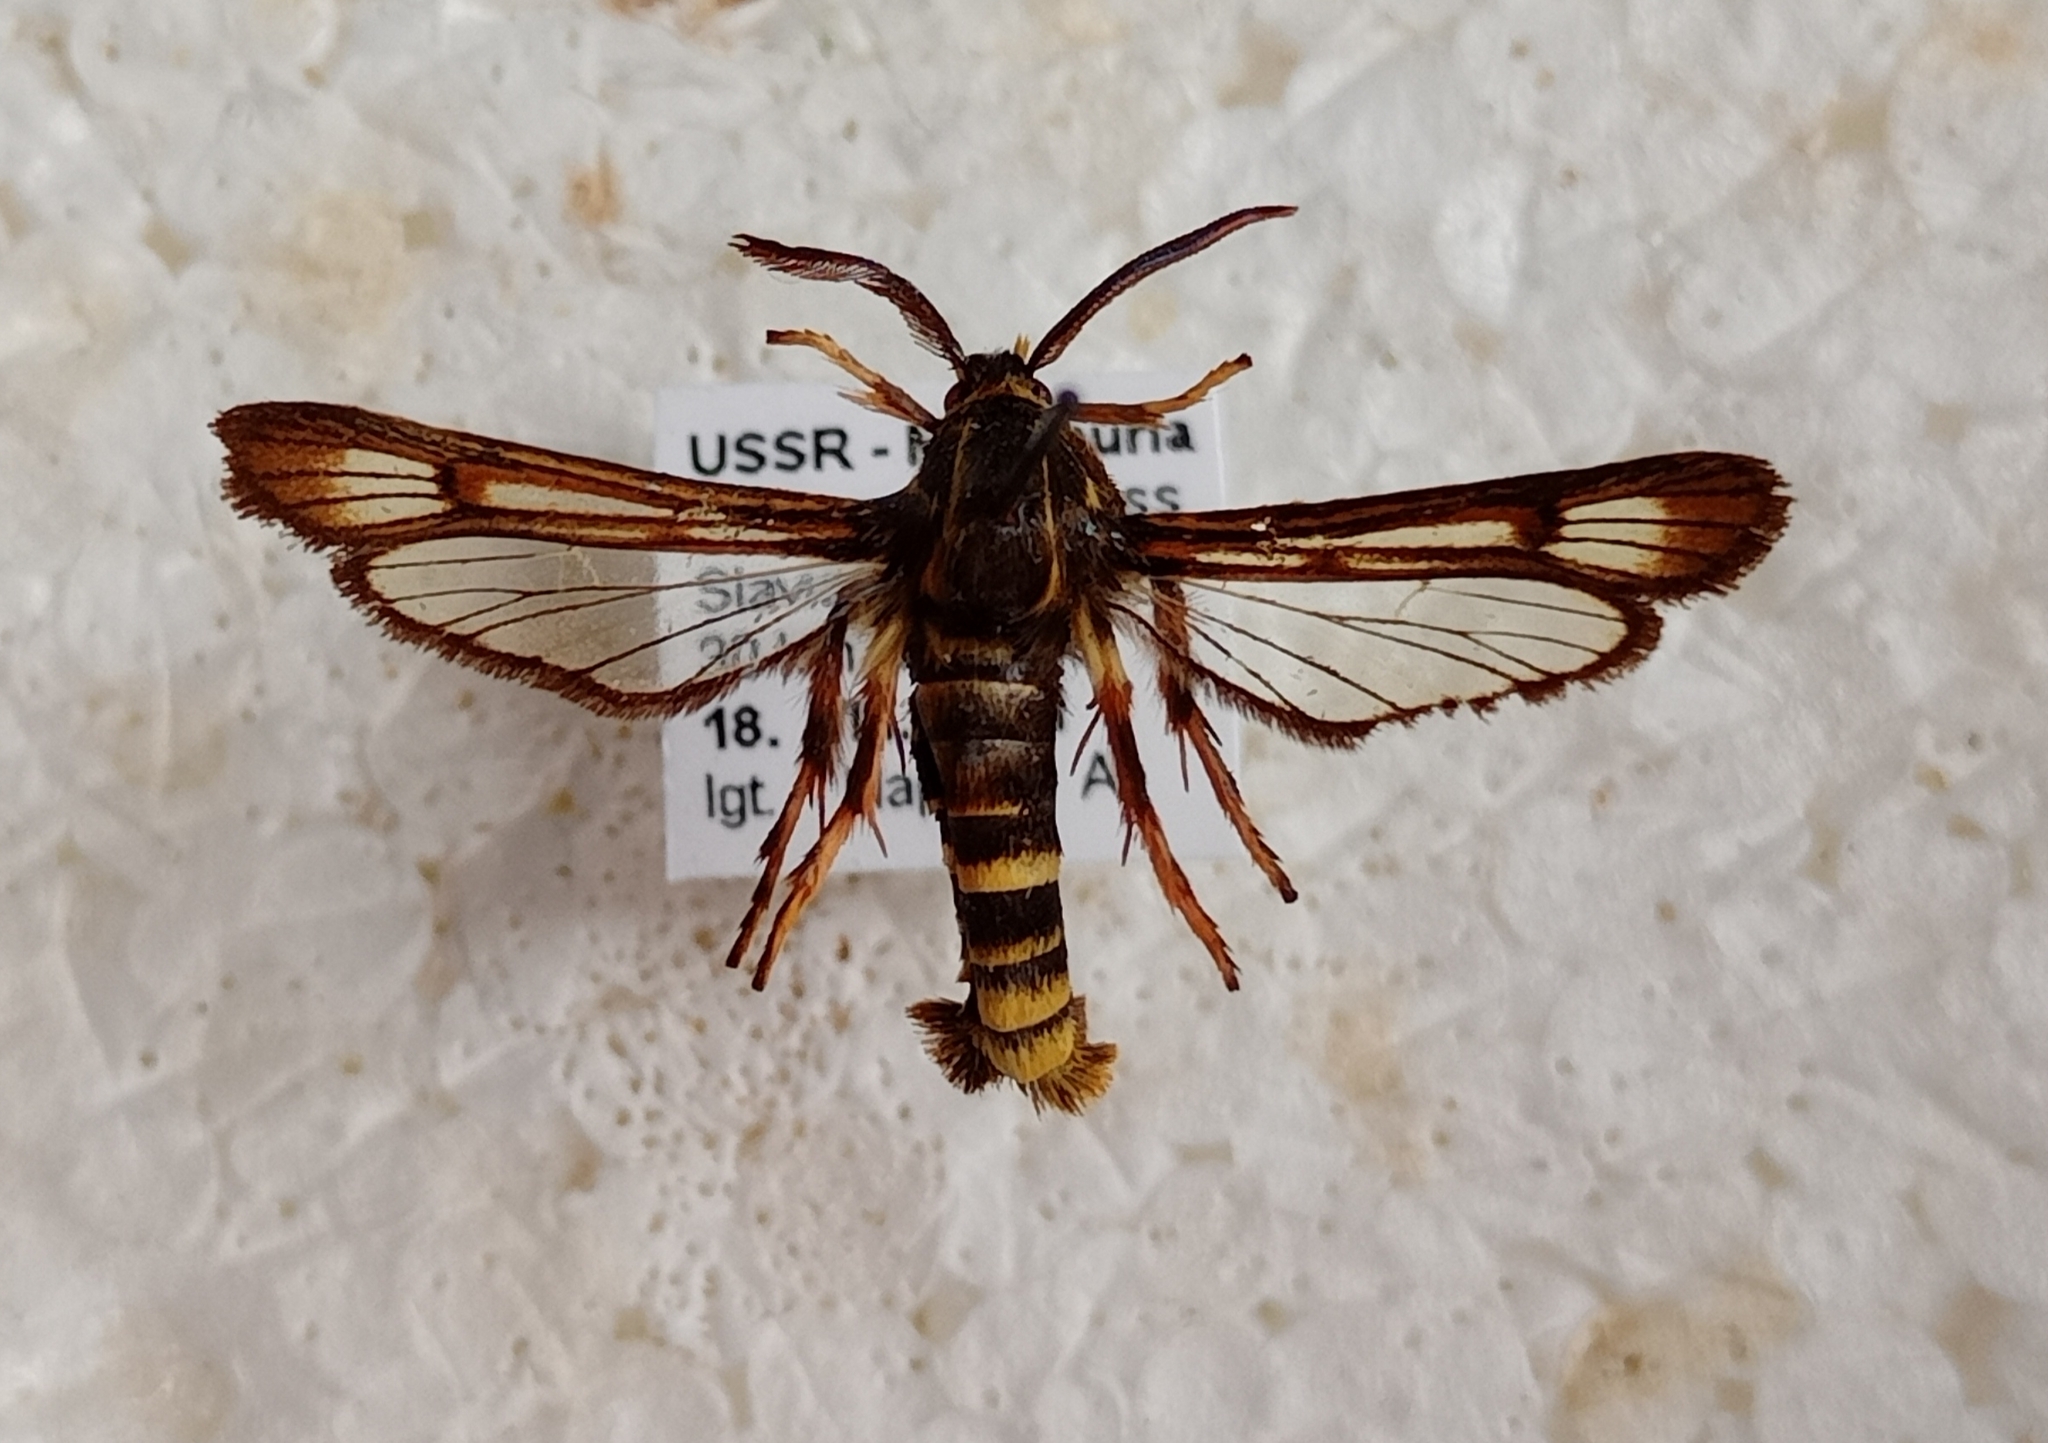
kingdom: Animalia
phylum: Arthropoda
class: Insecta
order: Lepidoptera
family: Sesiidae
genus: Pennisetia
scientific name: Pennisetia pectinata
